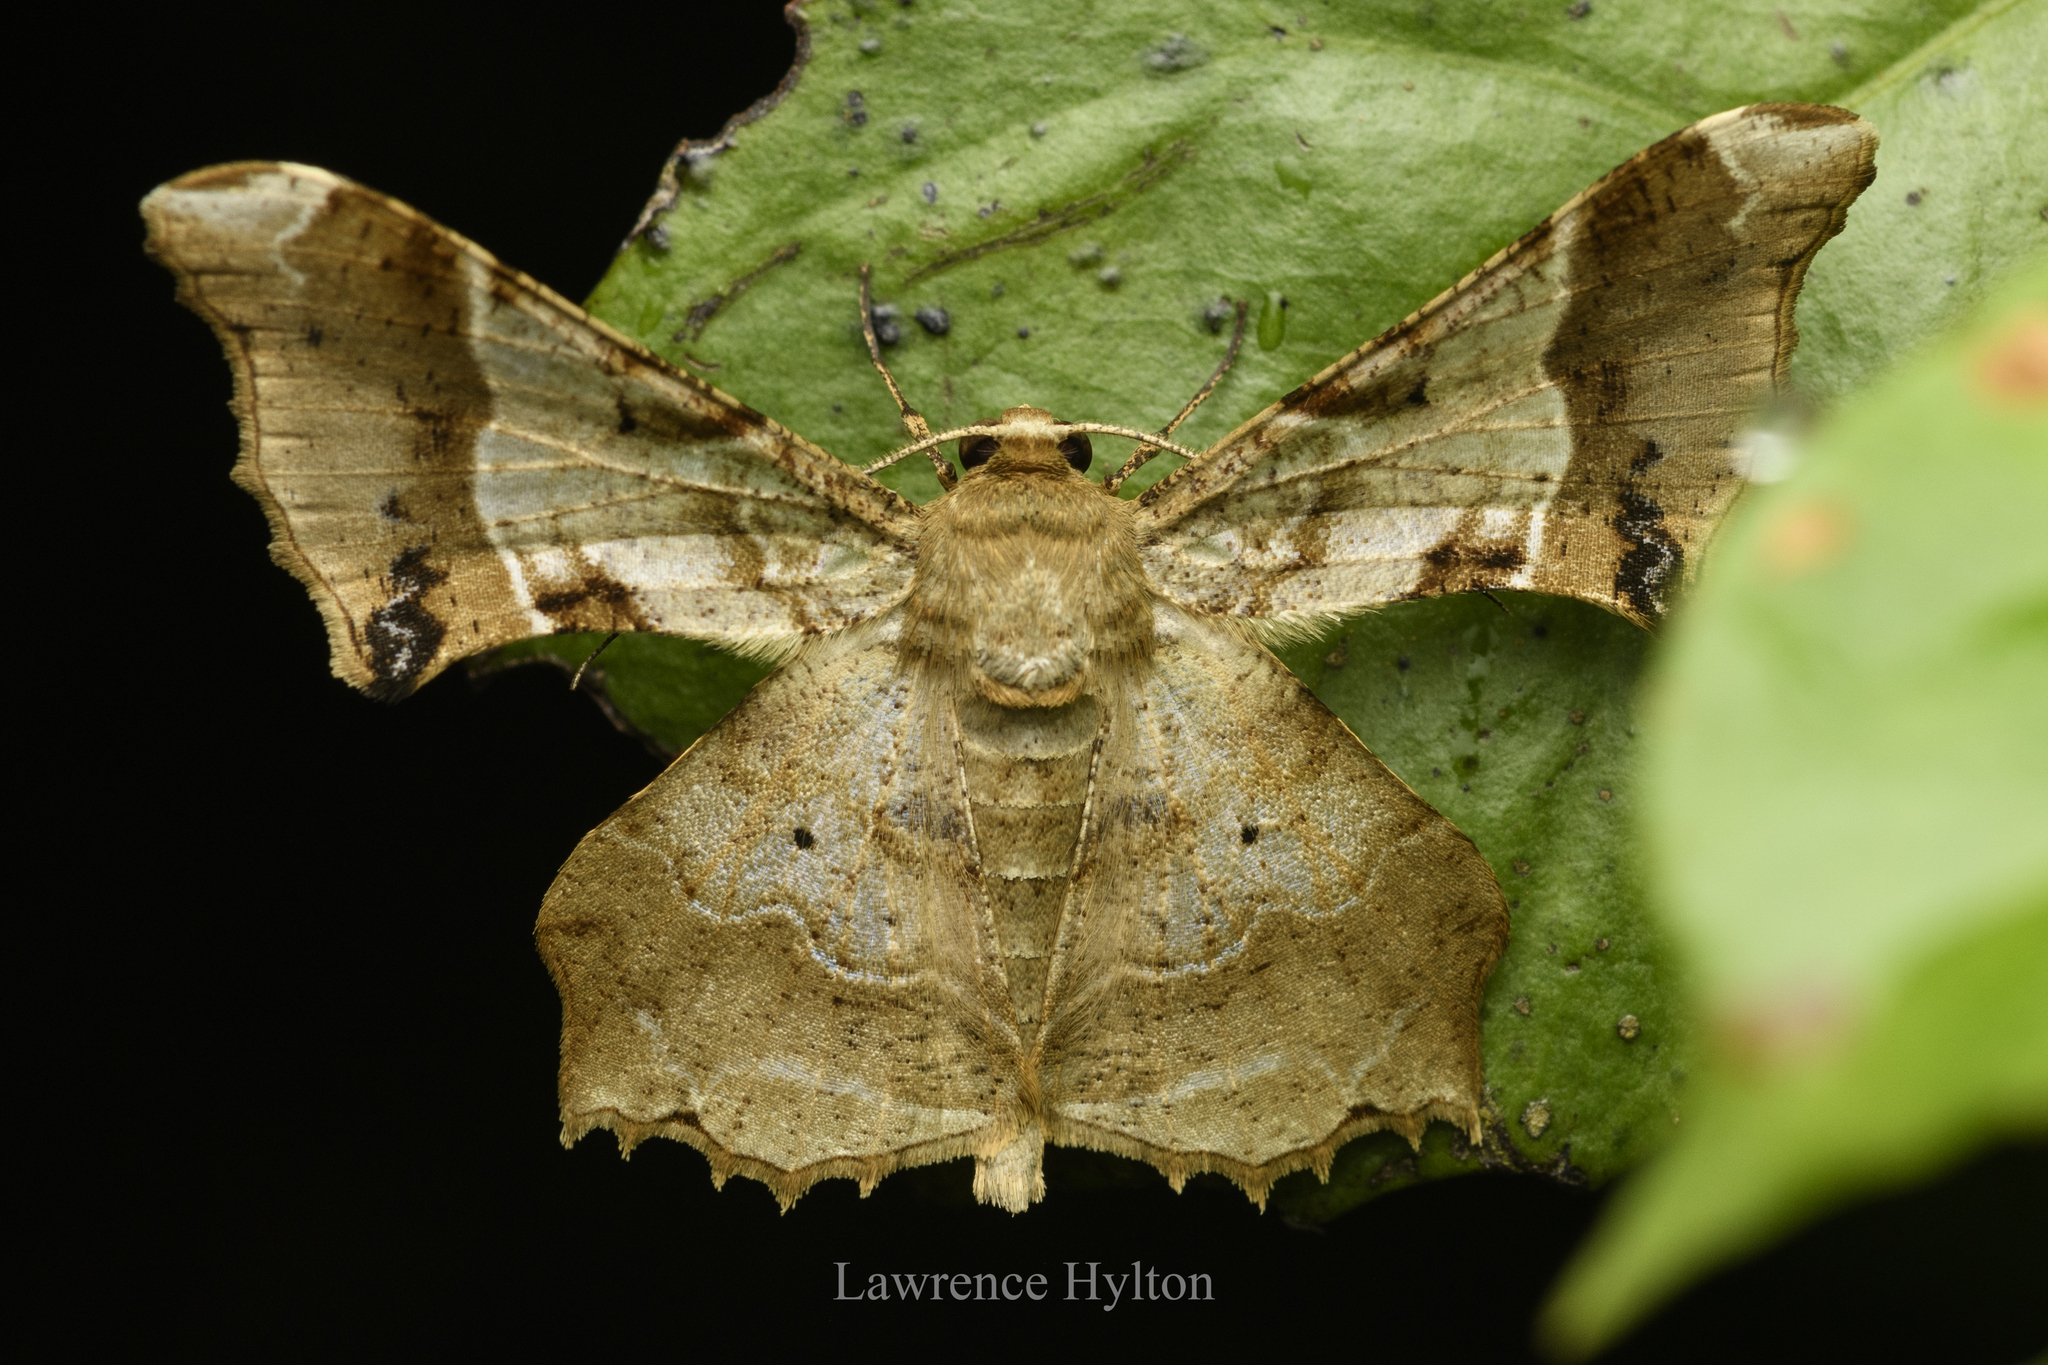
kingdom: Animalia
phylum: Arthropoda
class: Insecta
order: Lepidoptera
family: Geometridae
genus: Krananda
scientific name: Krananda oliveomarginata
